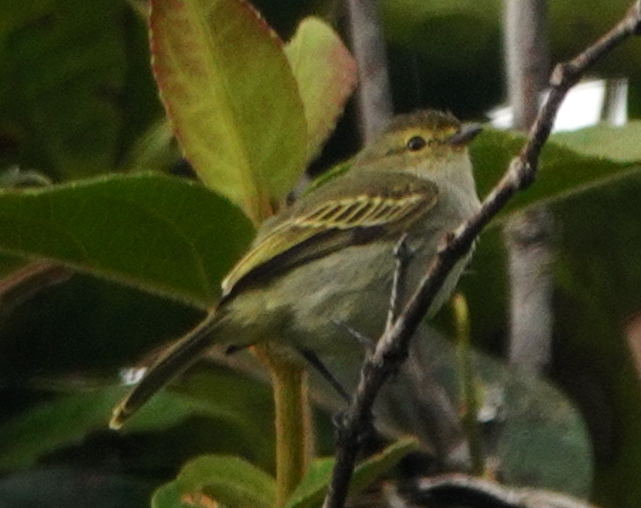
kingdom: Animalia
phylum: Chordata
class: Aves
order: Passeriformes
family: Tyrannidae
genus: Zimmerius
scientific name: Zimmerius chrysops
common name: Golden-faced tyrannulet
